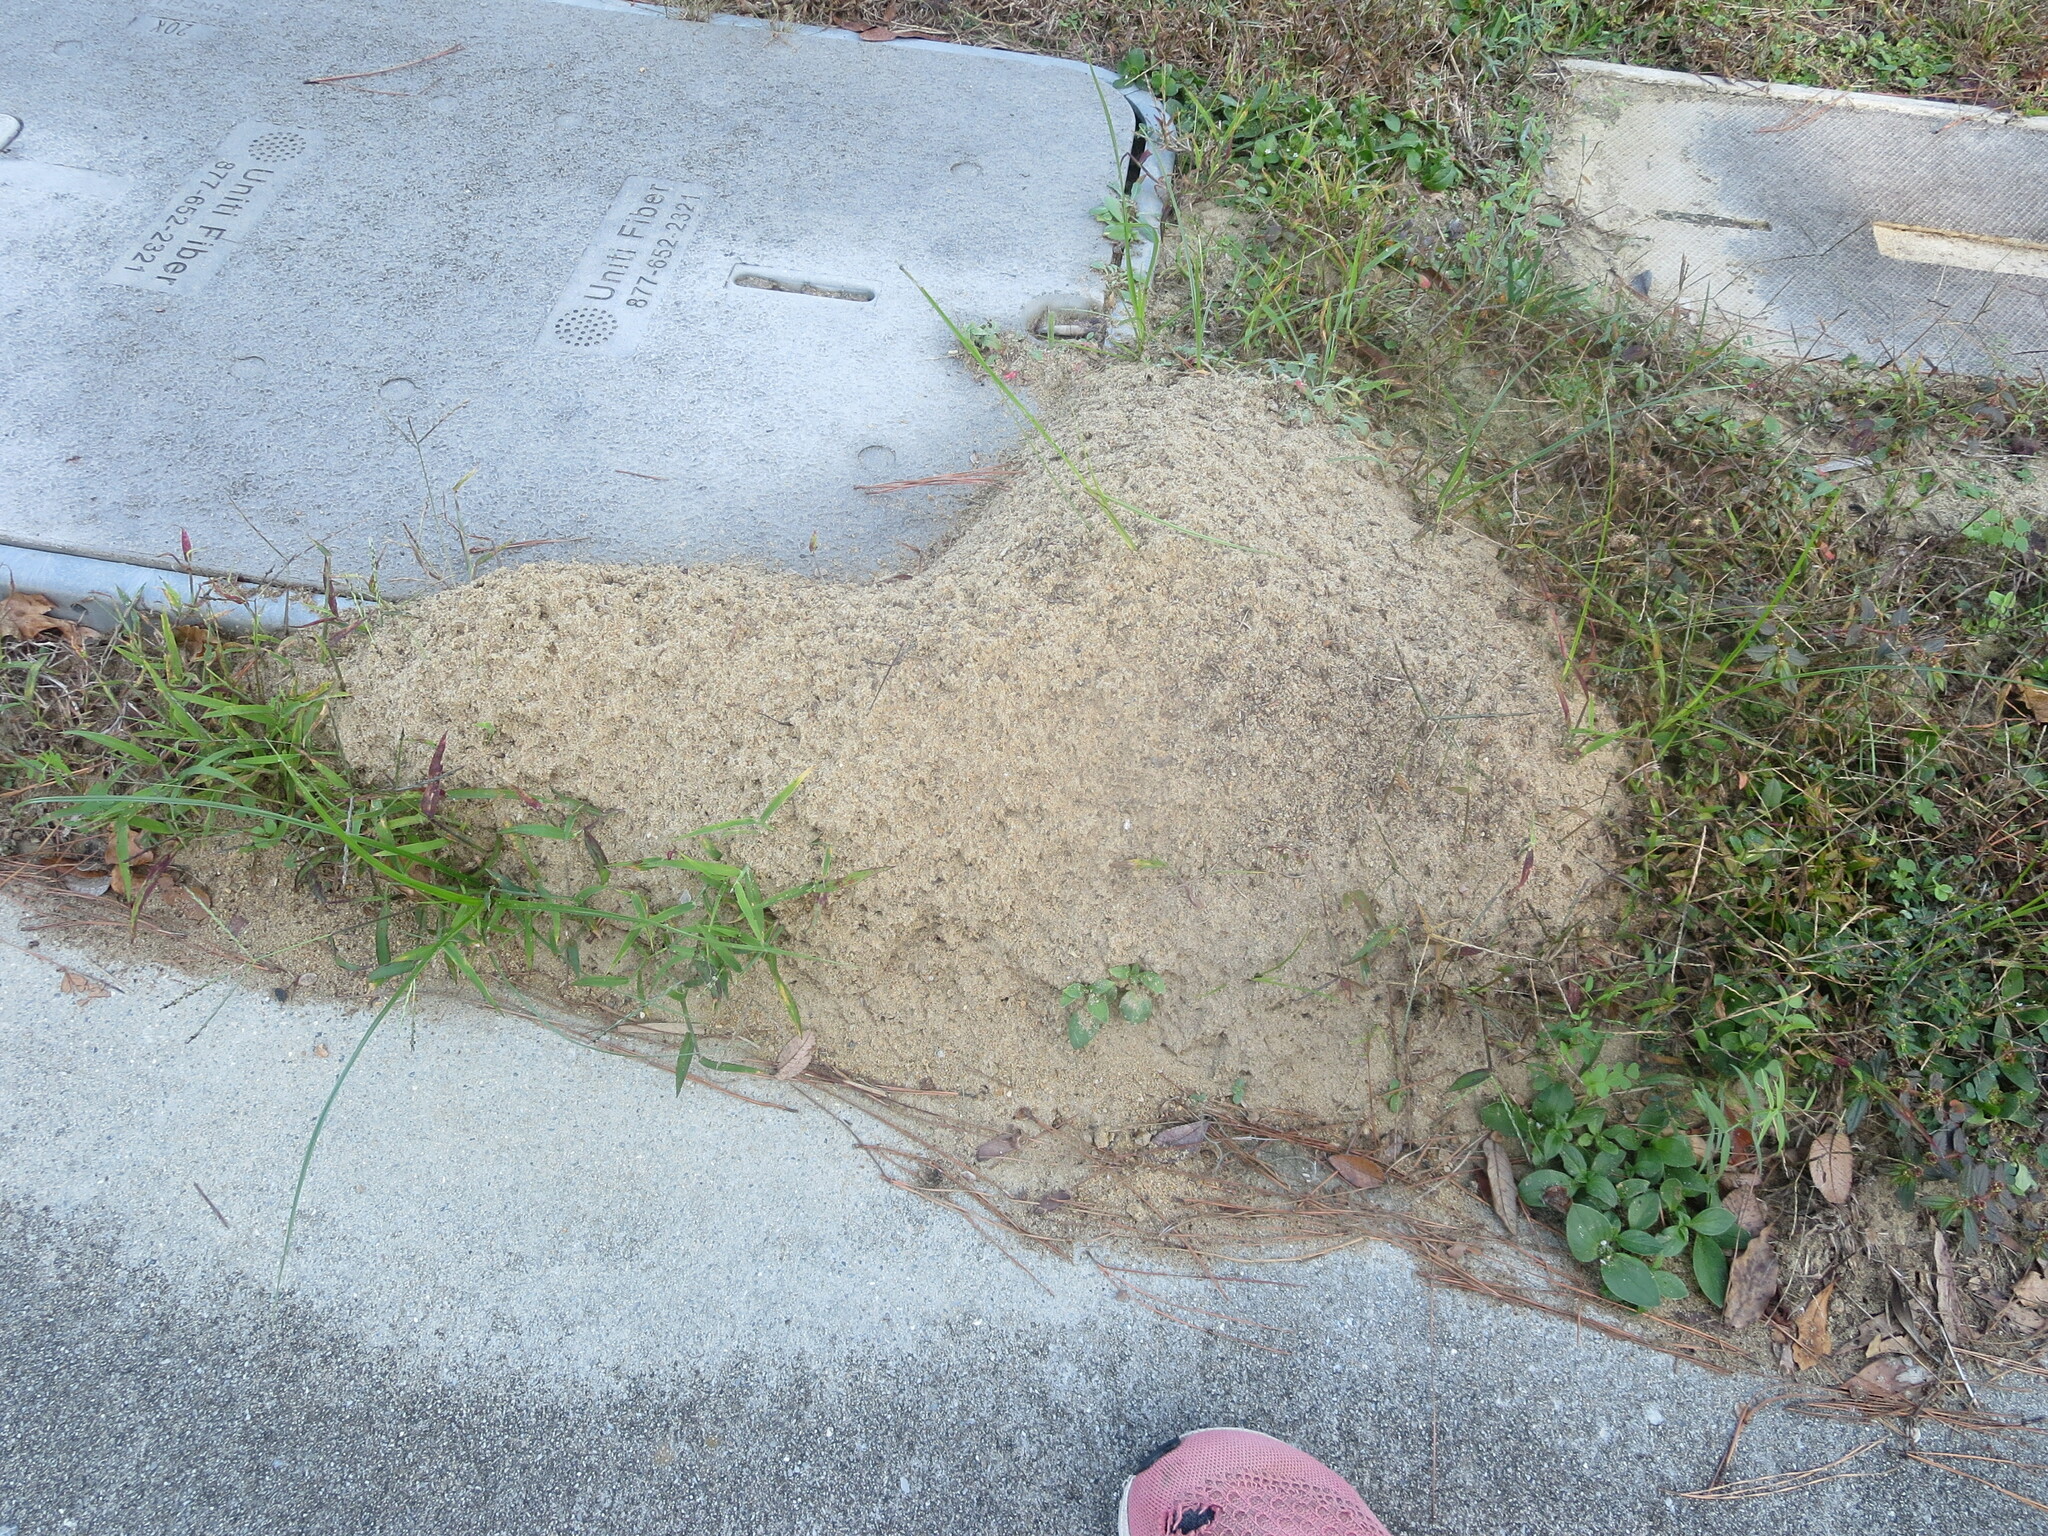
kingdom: Animalia
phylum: Arthropoda
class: Insecta
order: Hymenoptera
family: Formicidae
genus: Solenopsis
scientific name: Solenopsis invicta
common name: Red imported fire ant
